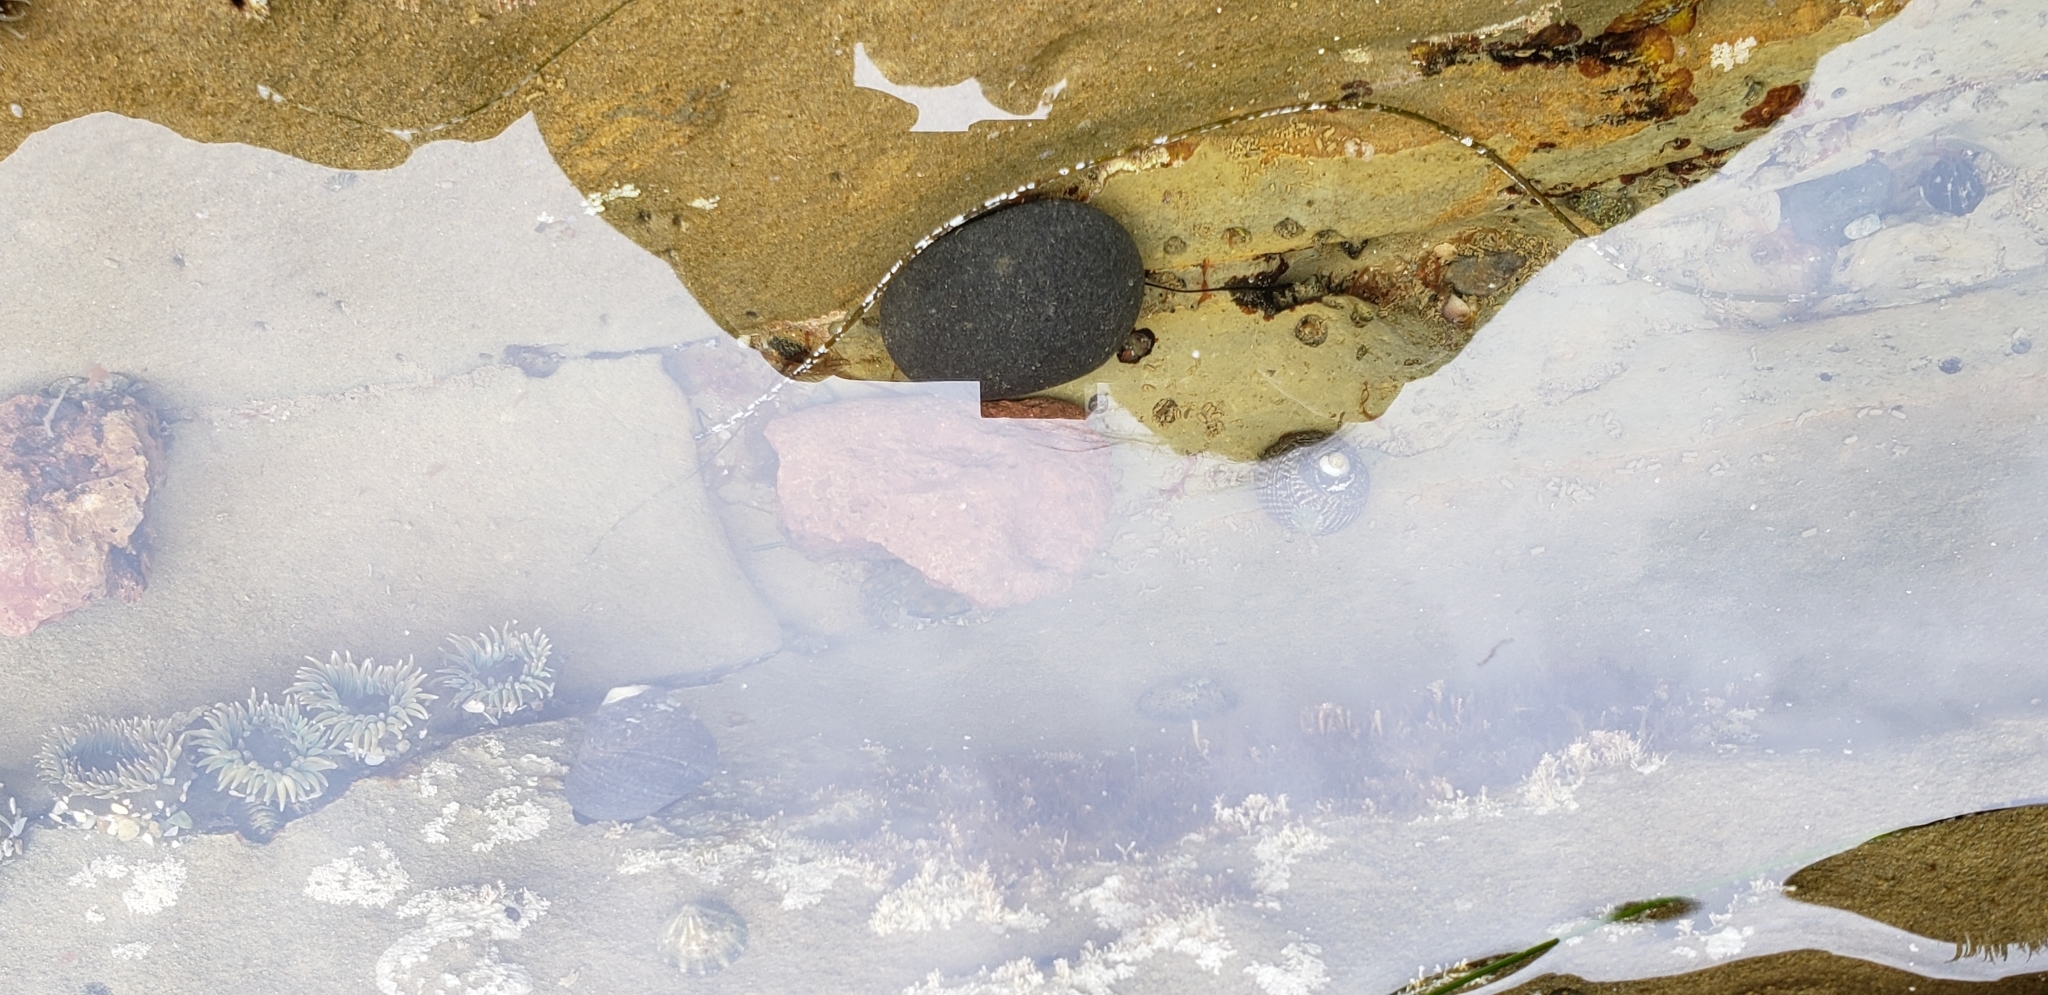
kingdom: Animalia
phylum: Mollusca
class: Gastropoda
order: Trochida
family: Tegulidae
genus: Tegula
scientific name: Tegula gallina
